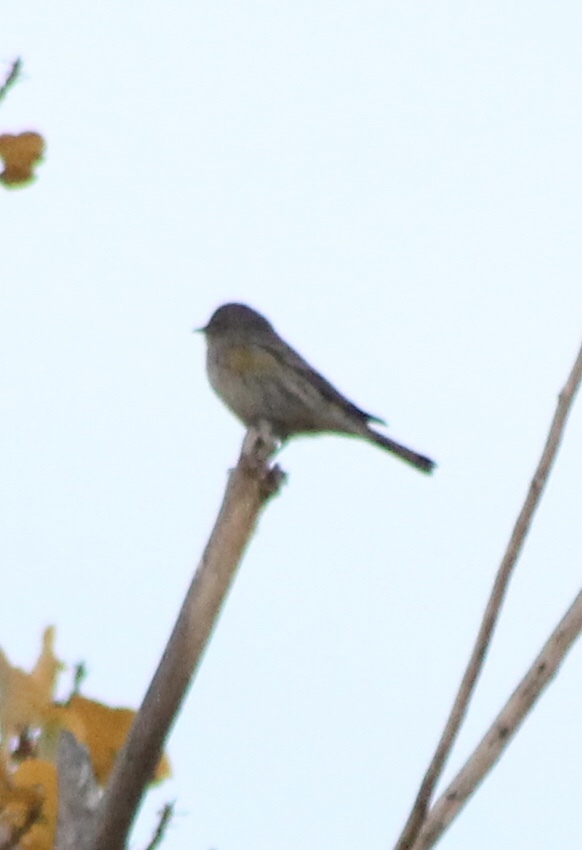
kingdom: Animalia
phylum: Chordata
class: Aves
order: Passeriformes
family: Parulidae
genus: Setophaga
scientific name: Setophaga auduboni
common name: Audubon's warbler
